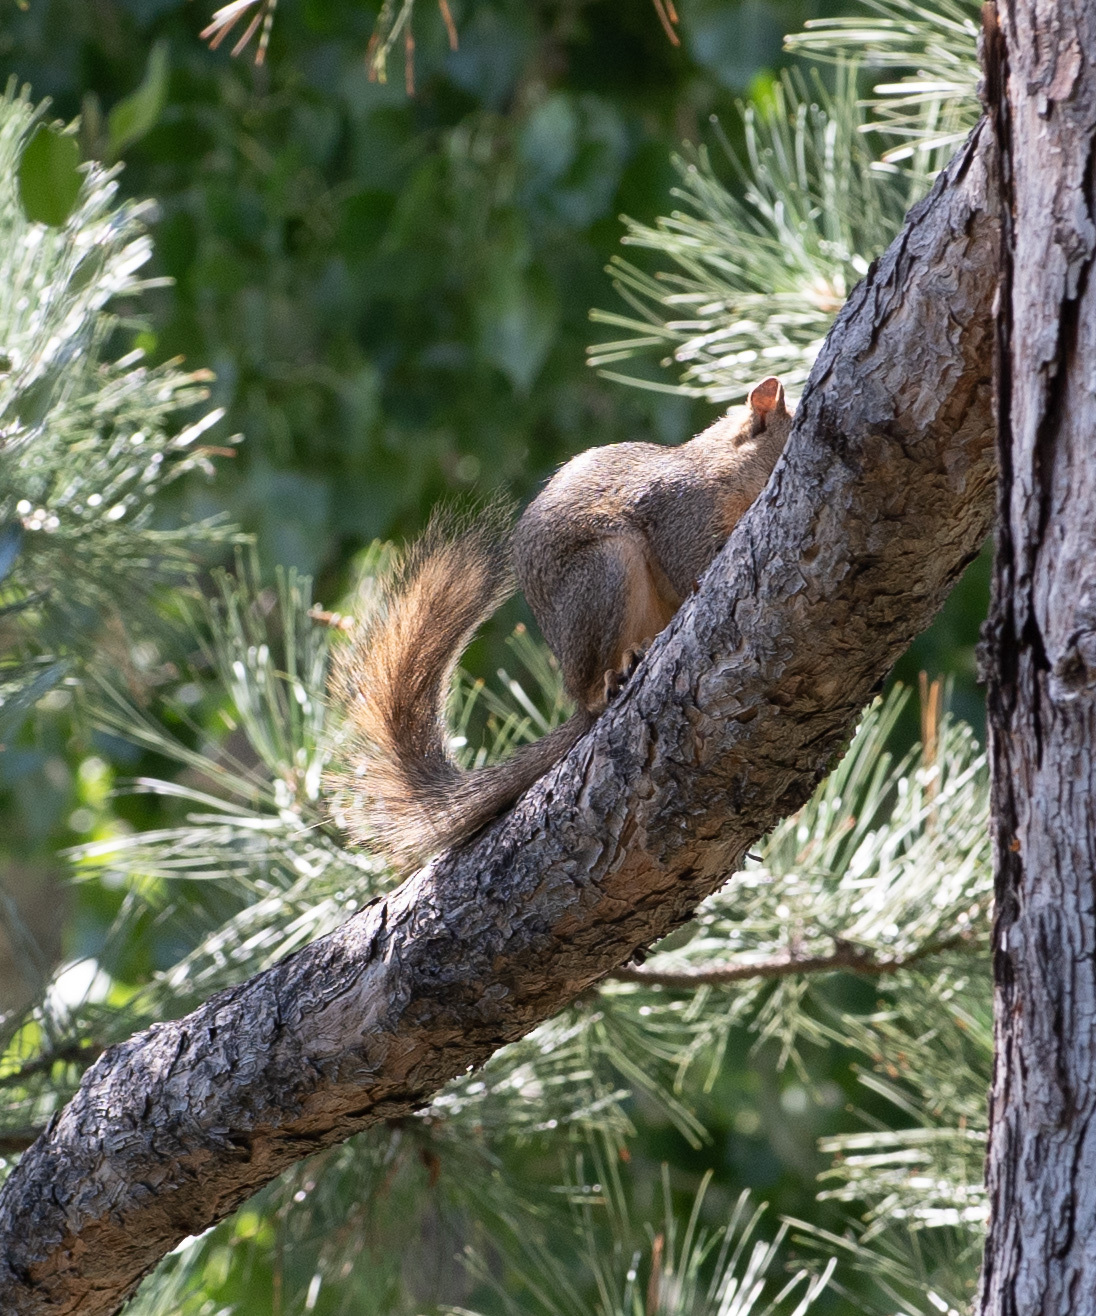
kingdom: Animalia
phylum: Chordata
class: Mammalia
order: Rodentia
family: Sciuridae
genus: Sciurus
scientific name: Sciurus niger
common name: Fox squirrel
